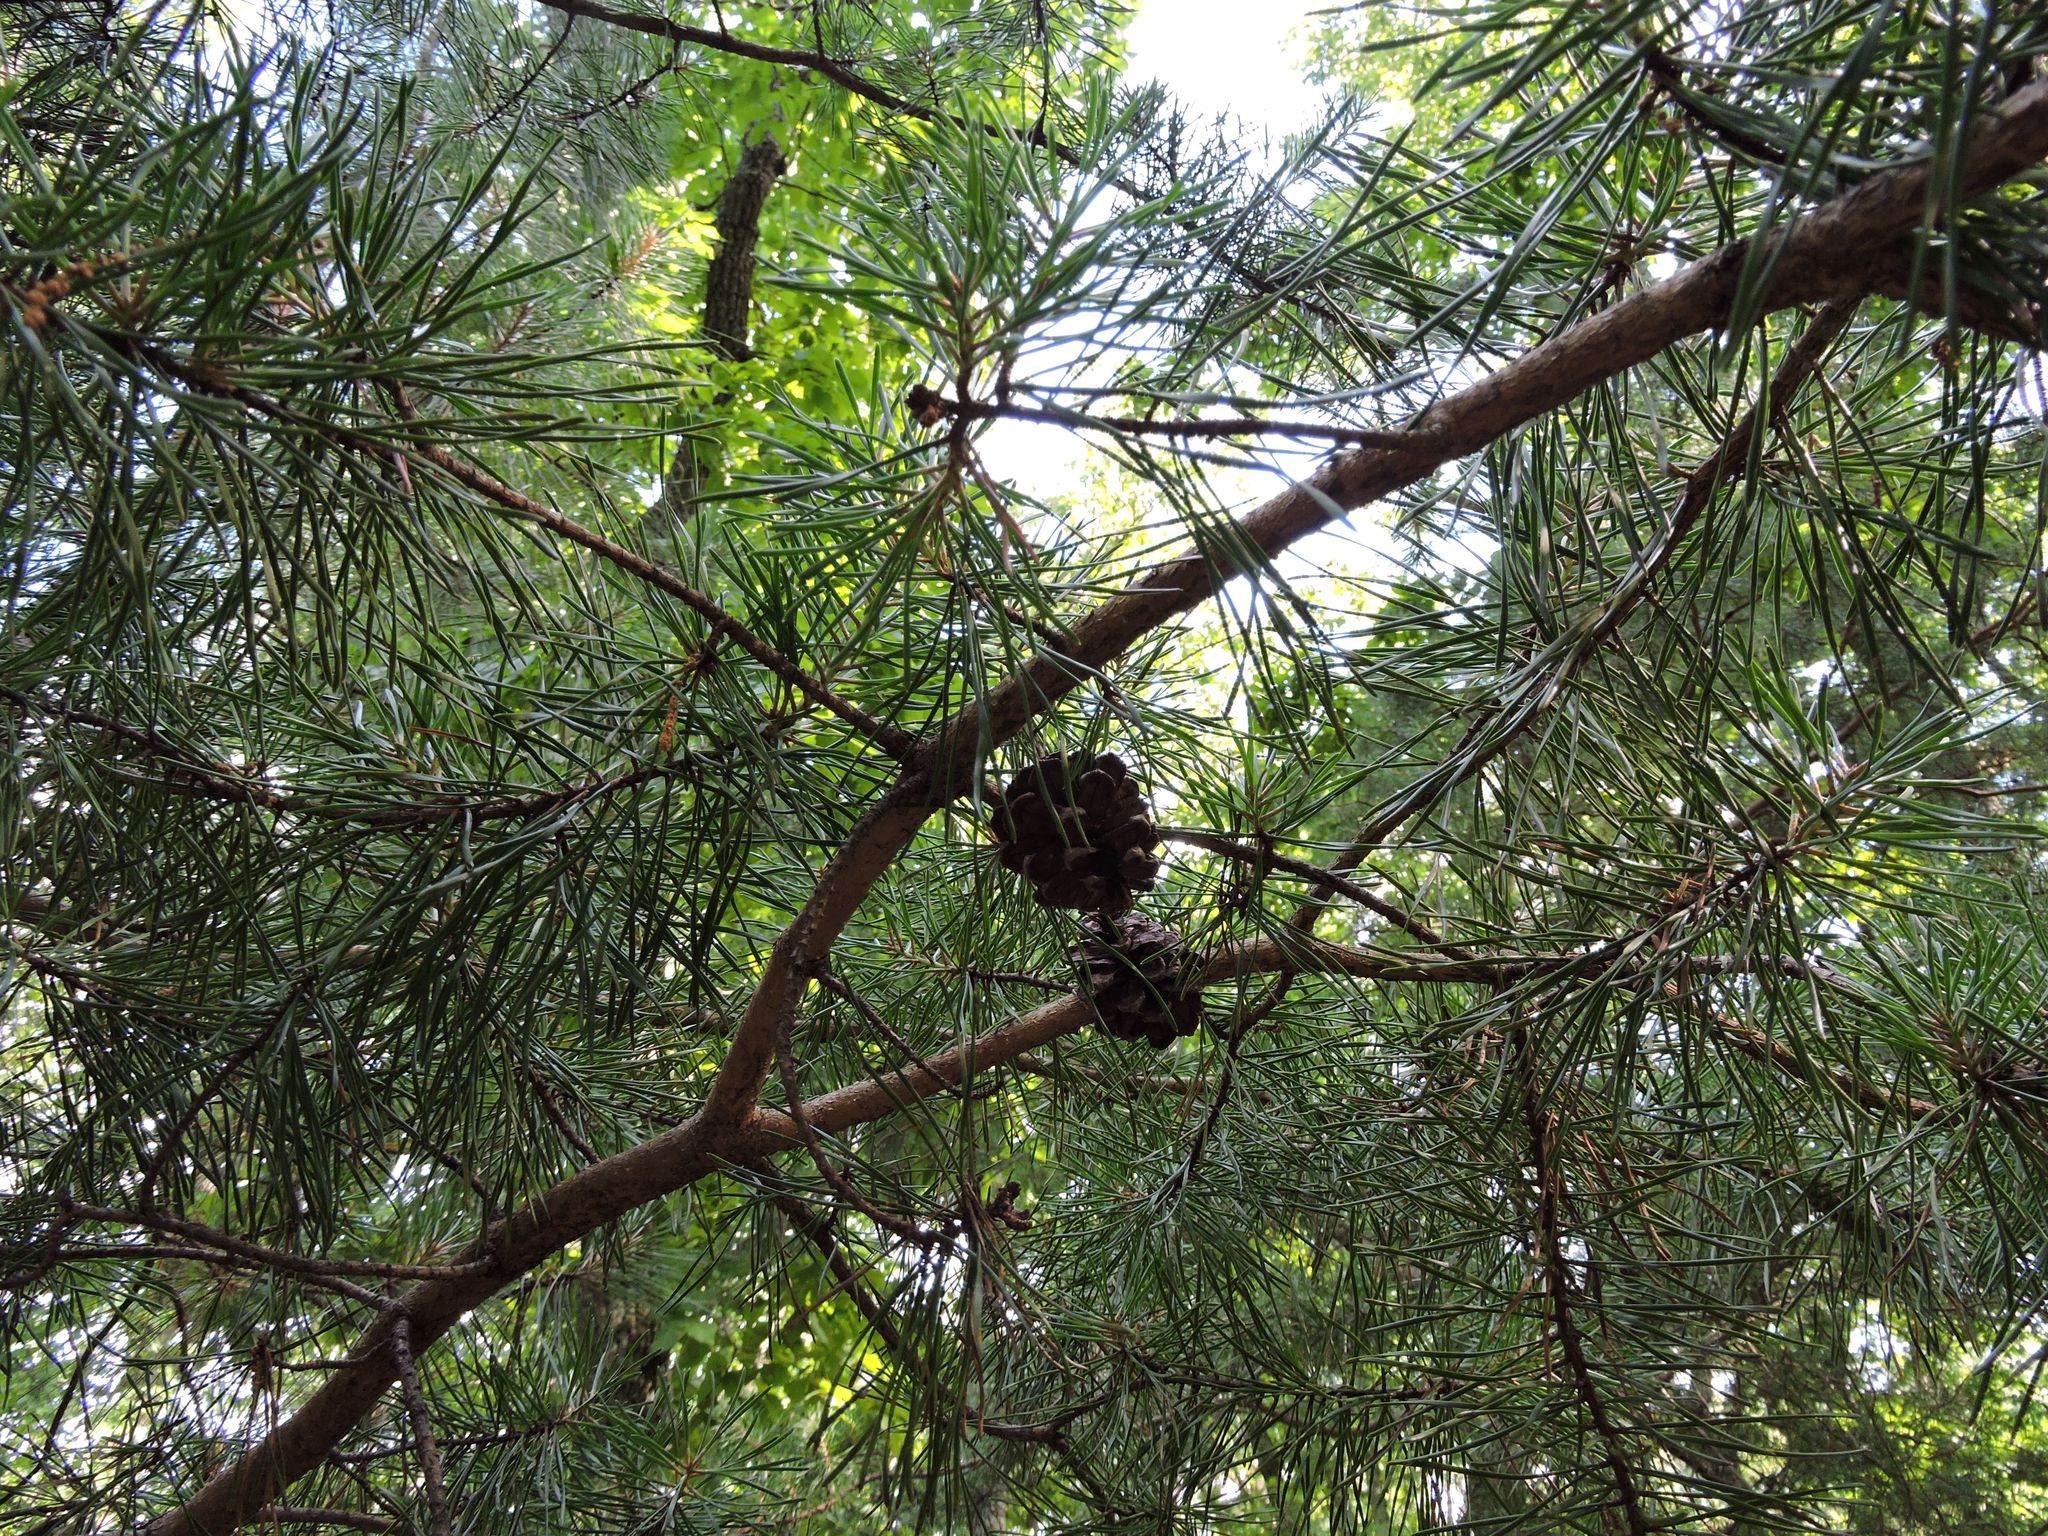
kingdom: Plantae
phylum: Tracheophyta
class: Pinopsida
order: Pinales
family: Pinaceae
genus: Pinus
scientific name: Pinus virginiana
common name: Scrub pine
